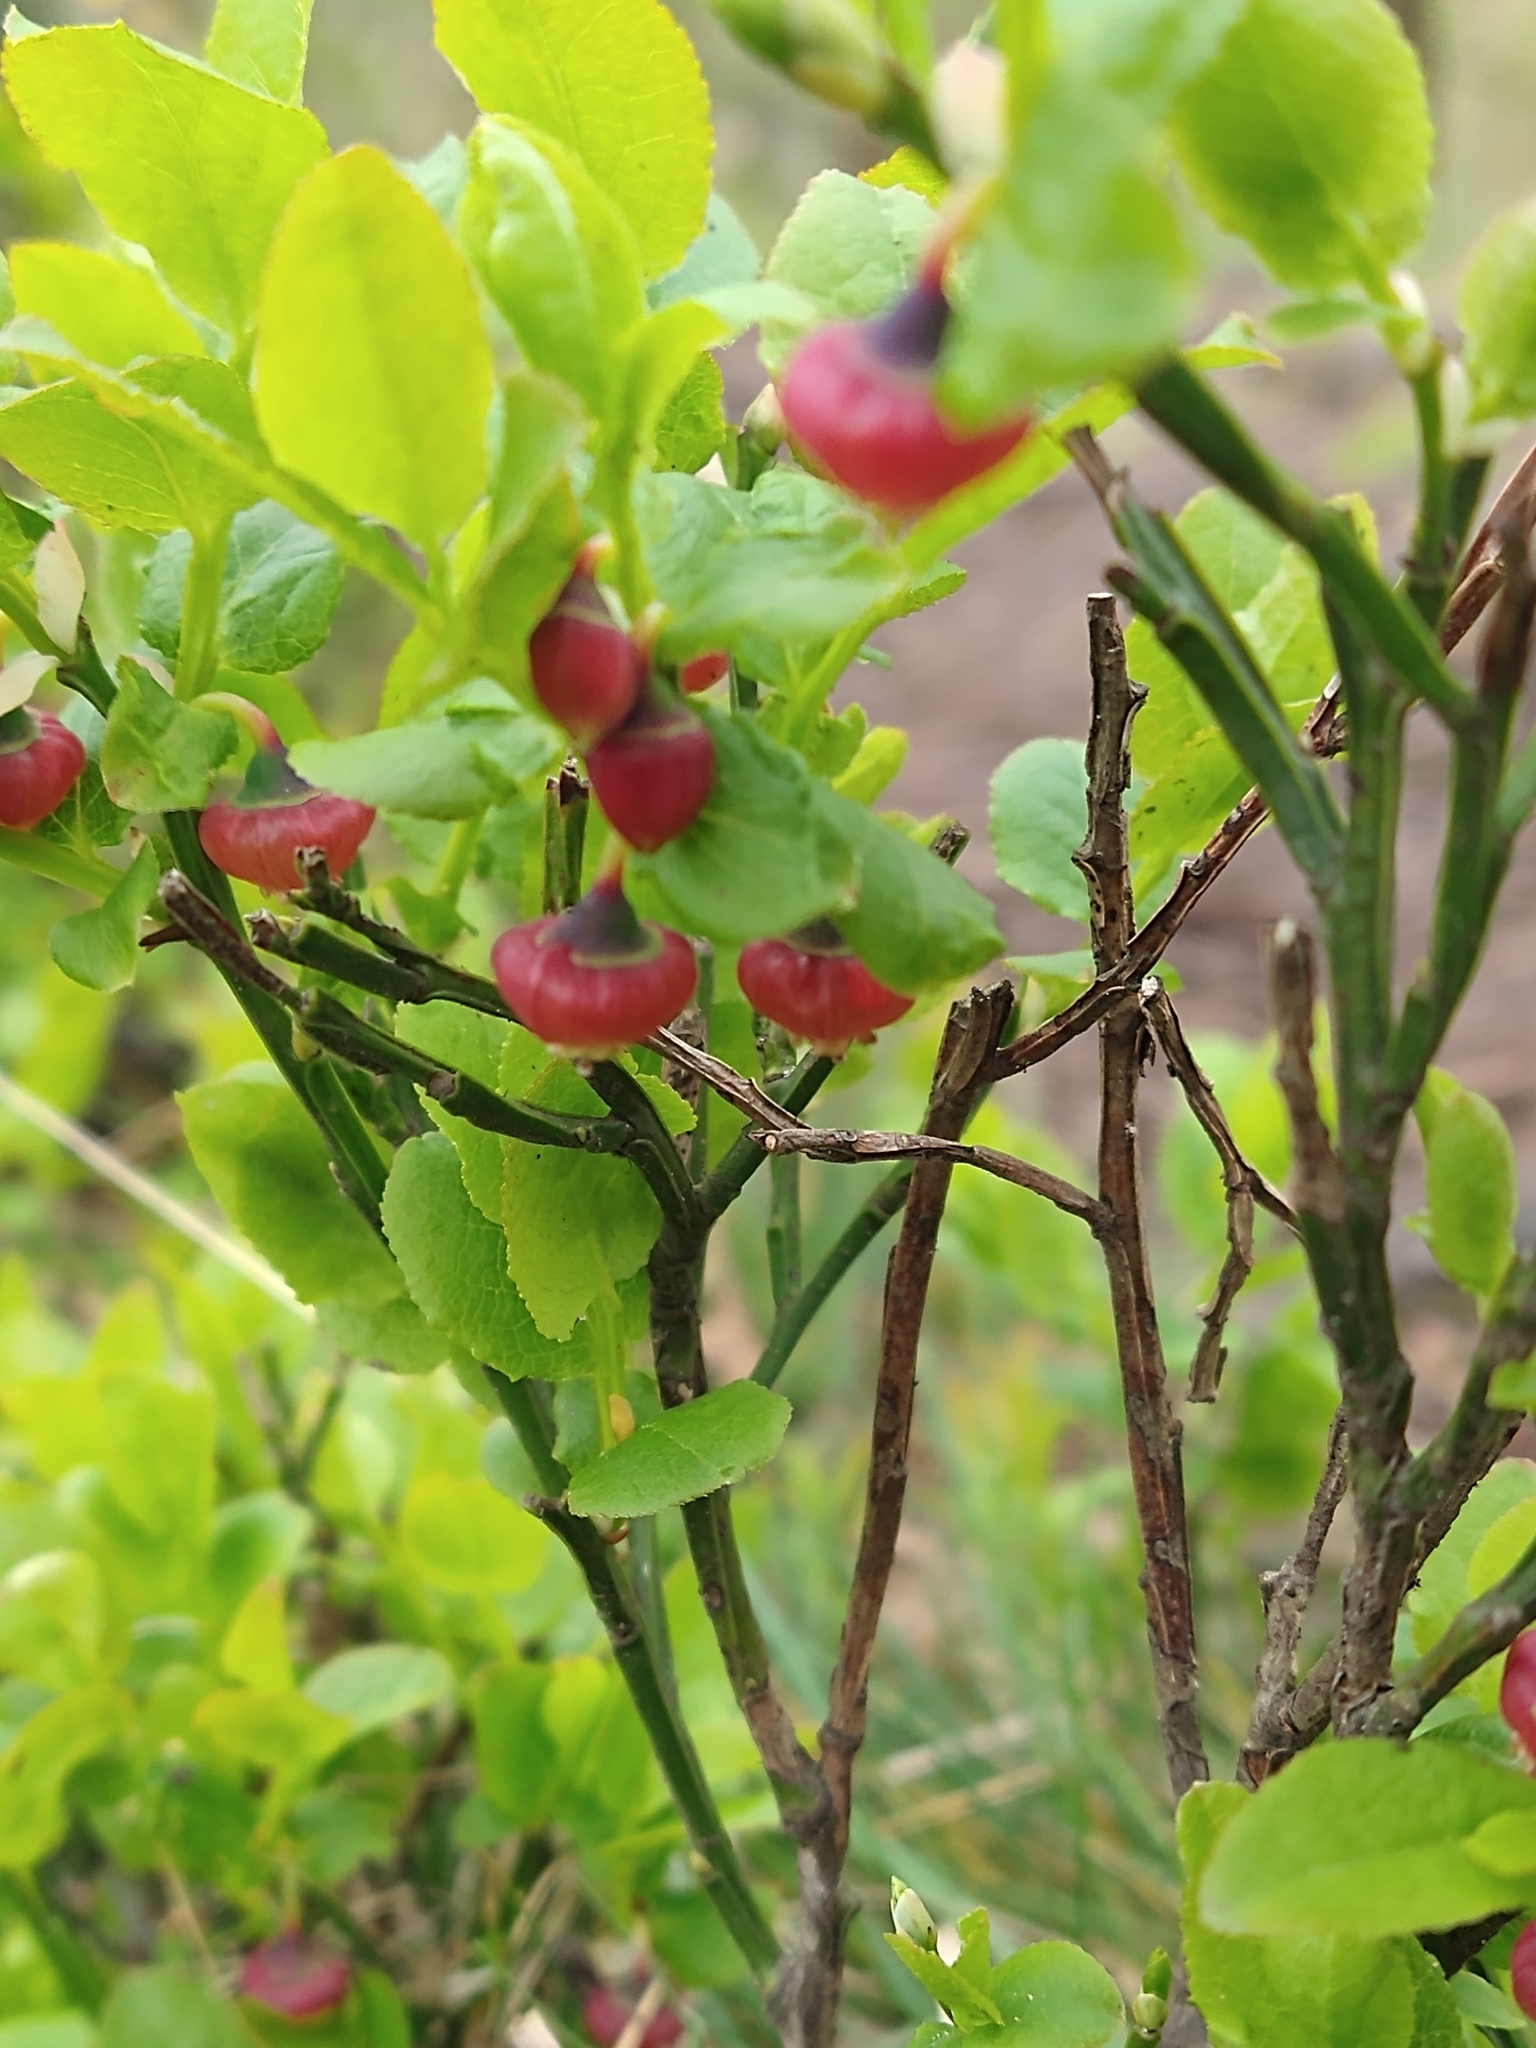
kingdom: Plantae
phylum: Tracheophyta
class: Magnoliopsida
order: Ericales
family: Ericaceae
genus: Vaccinium
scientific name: Vaccinium myrtillus
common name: Bilberry
